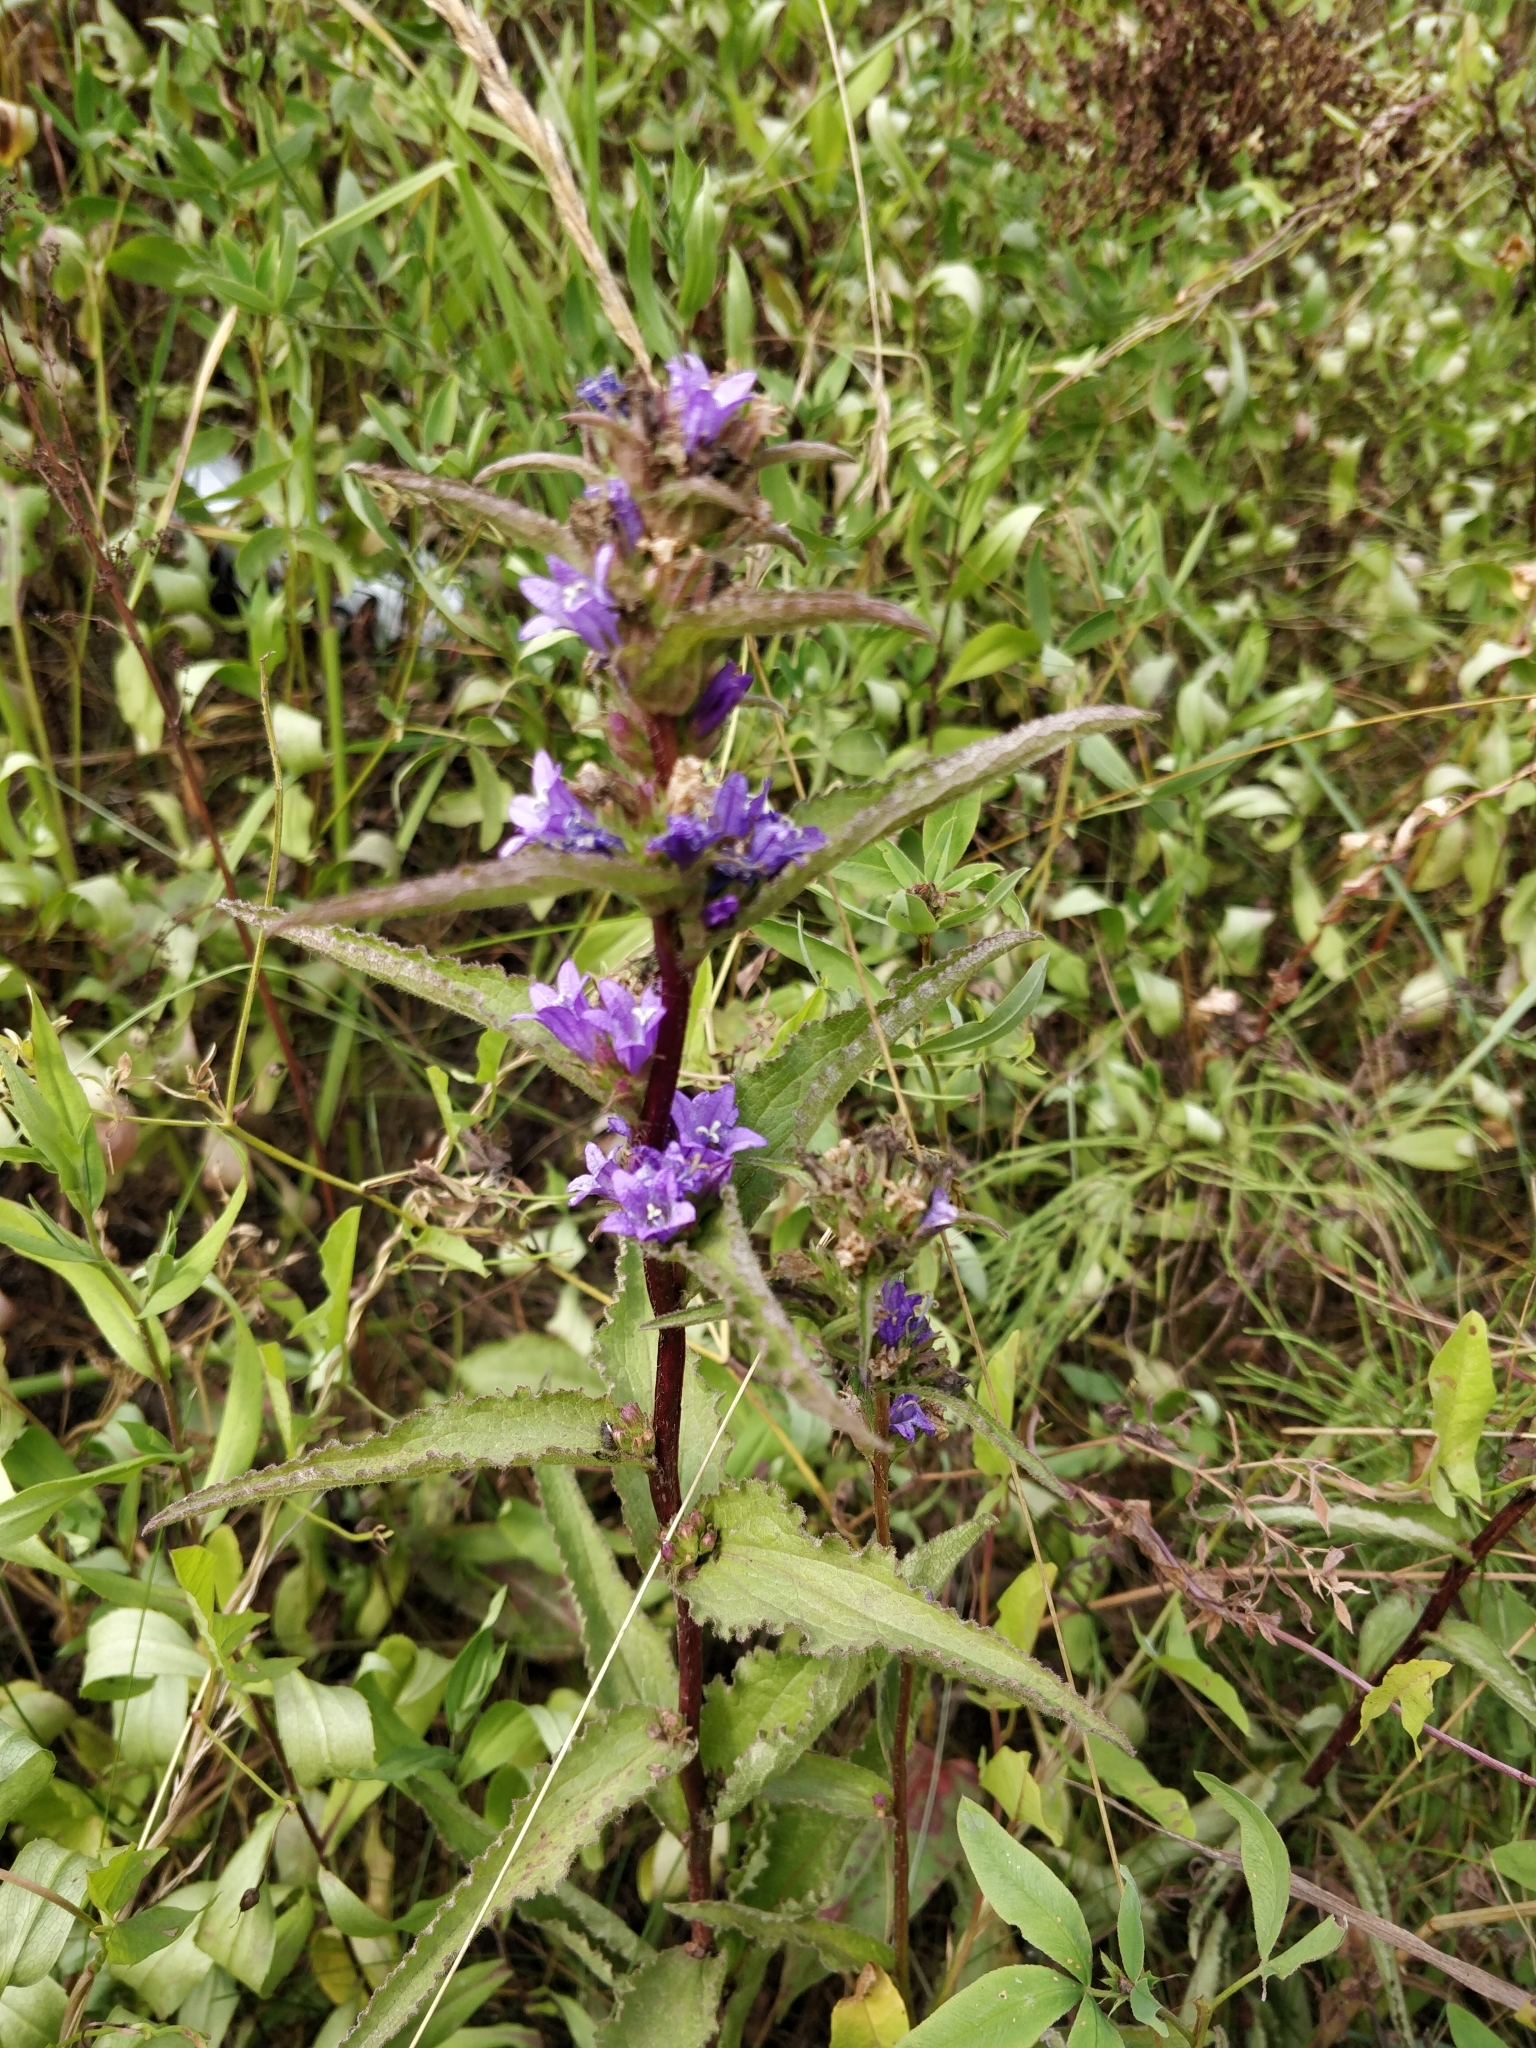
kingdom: Plantae
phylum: Tracheophyta
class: Magnoliopsida
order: Asterales
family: Campanulaceae
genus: Campanula
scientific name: Campanula glomerata
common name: Clustered bellflower
